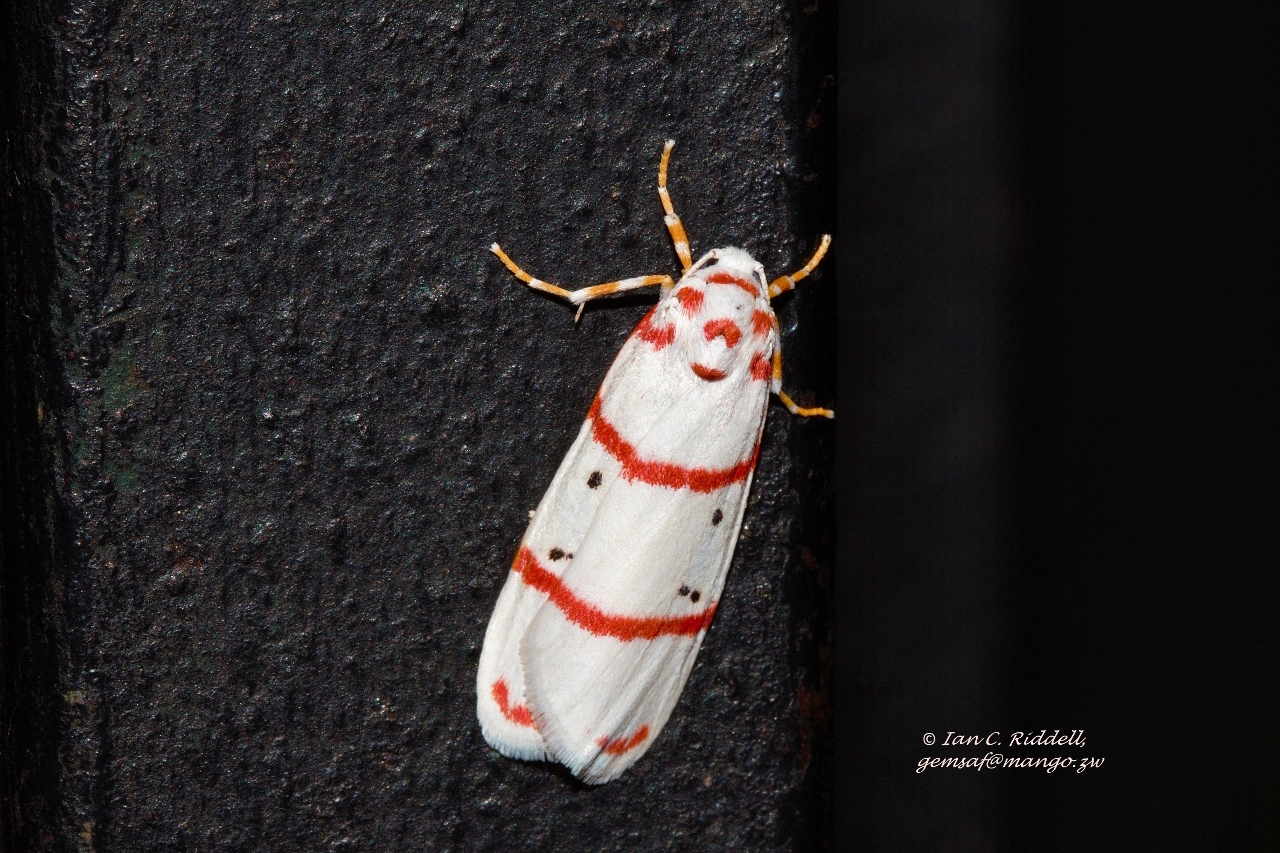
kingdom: Animalia
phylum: Arthropoda
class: Insecta
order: Lepidoptera
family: Erebidae
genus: Cyana
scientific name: Cyana pretoriae
